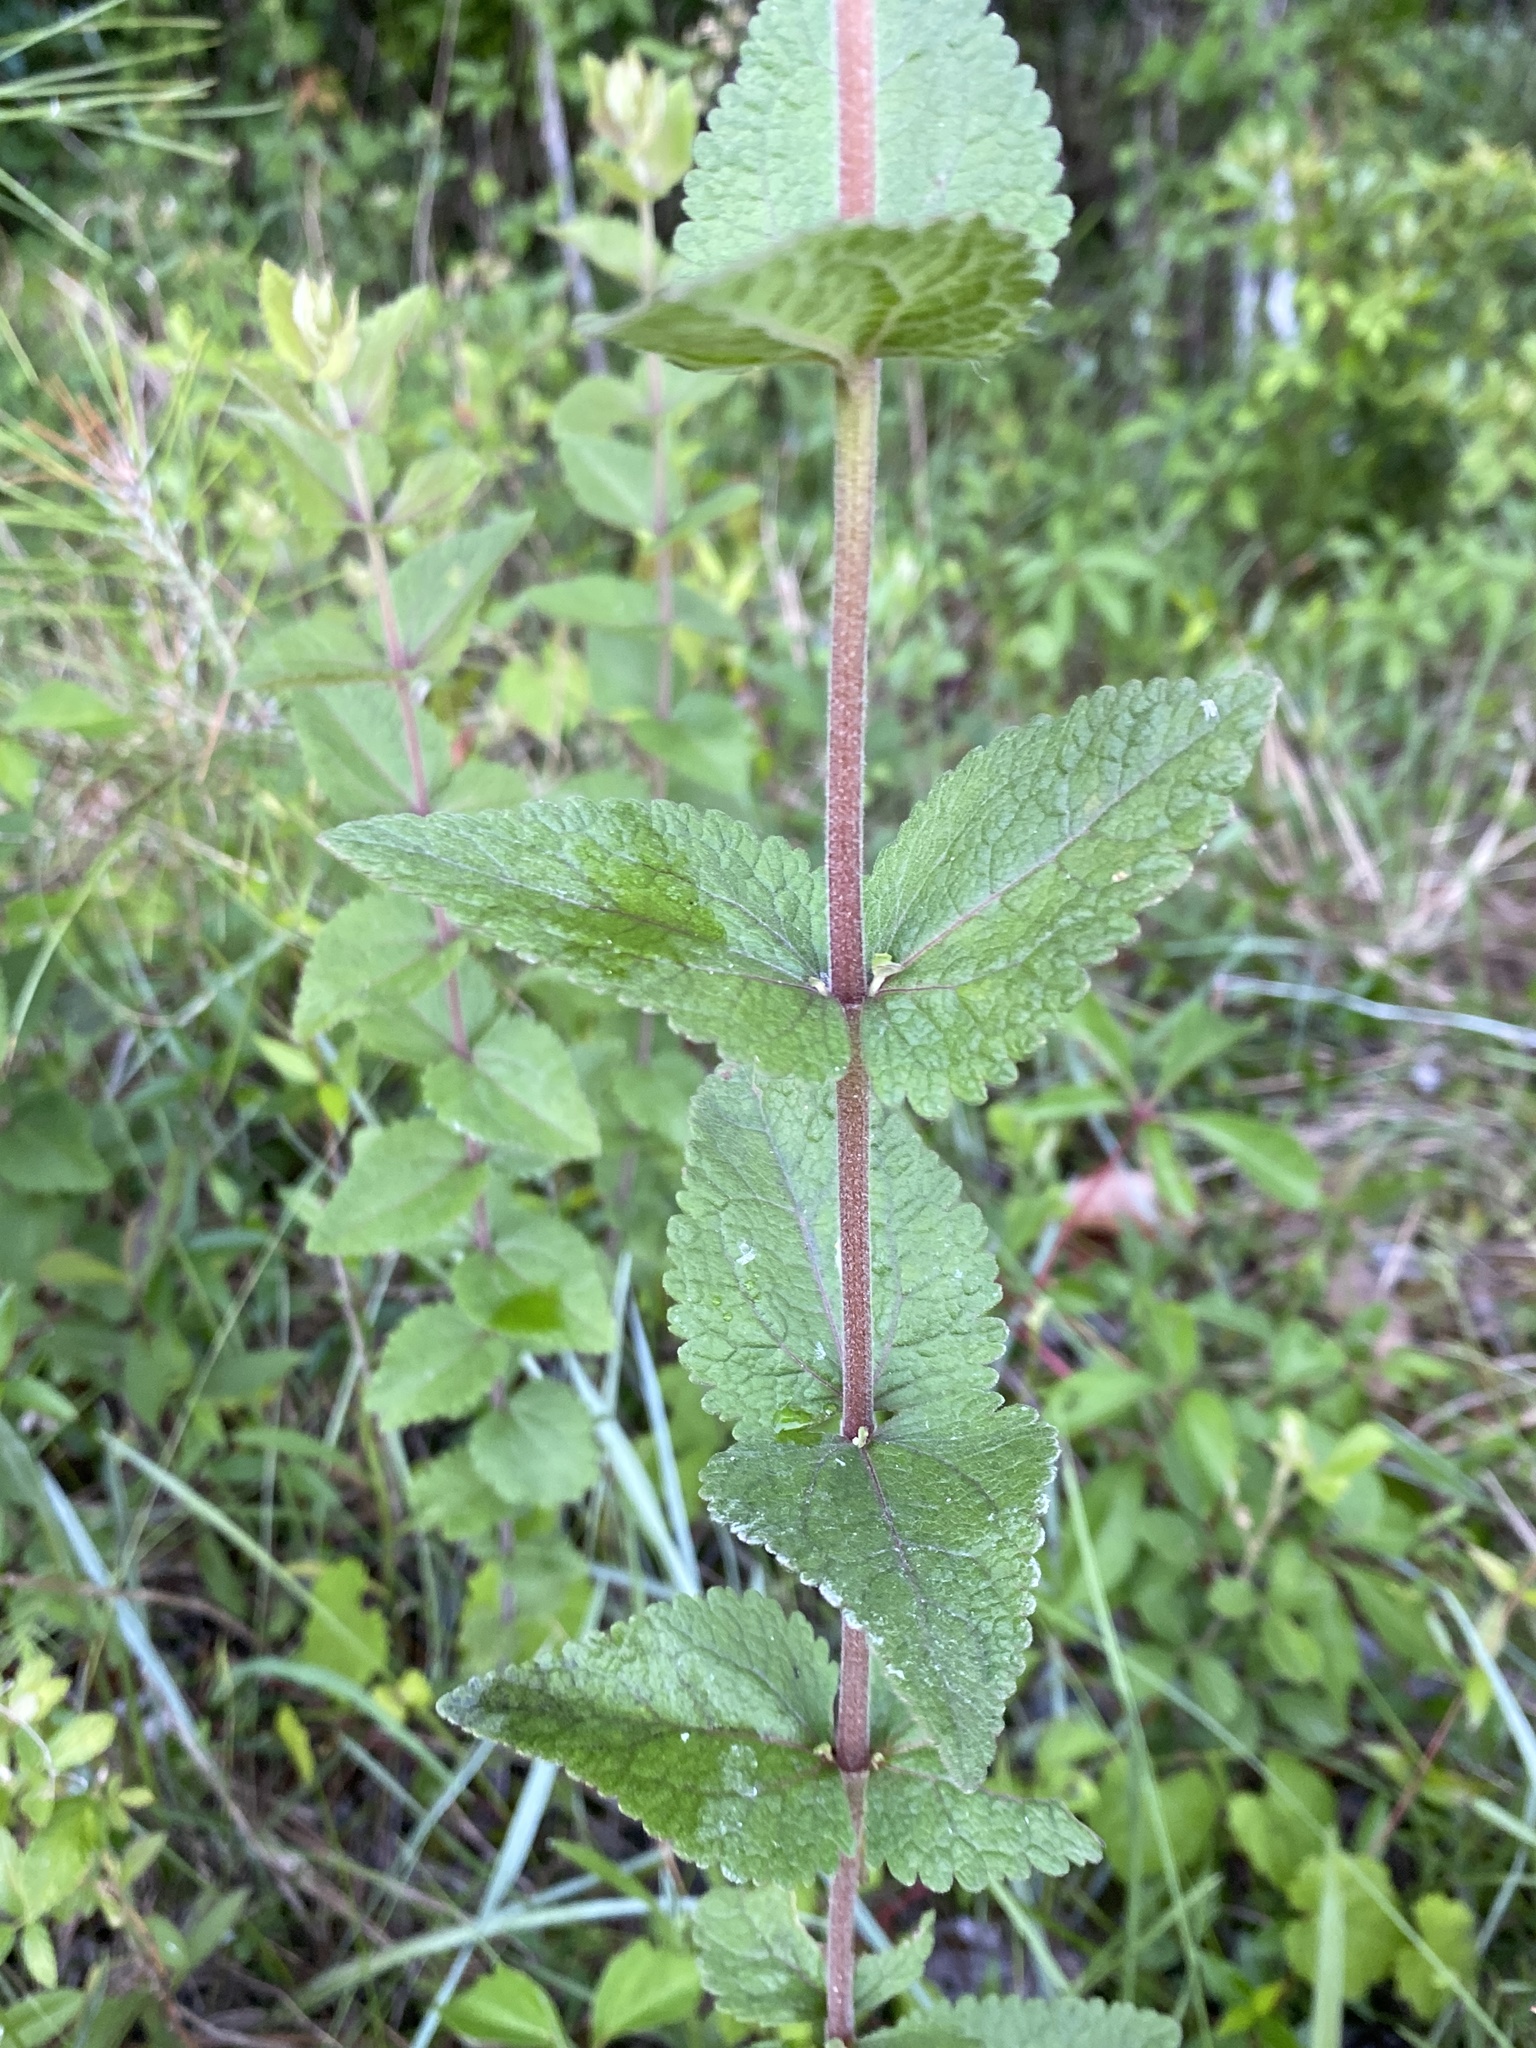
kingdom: Plantae
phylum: Tracheophyta
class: Magnoliopsida
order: Asterales
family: Asteraceae
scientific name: Asteraceae
